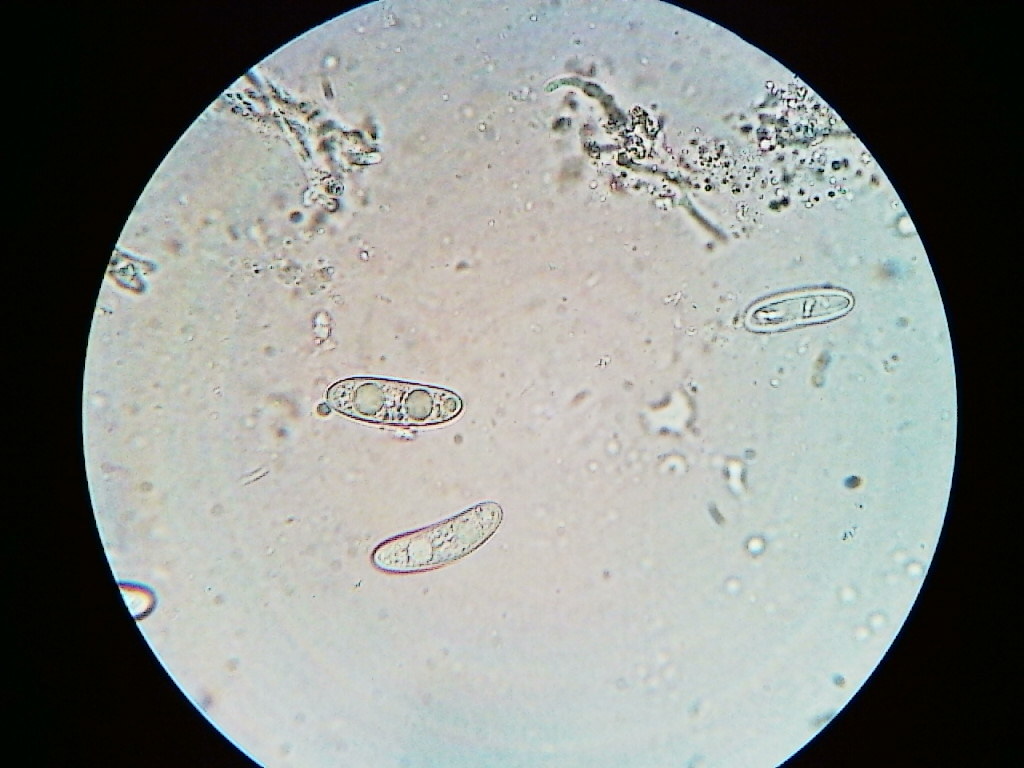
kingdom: Fungi
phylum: Ascomycota
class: Leotiomycetes
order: Chaetomellales
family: Marthamycetaceae
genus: Propolis
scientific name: Propolis farinosa
